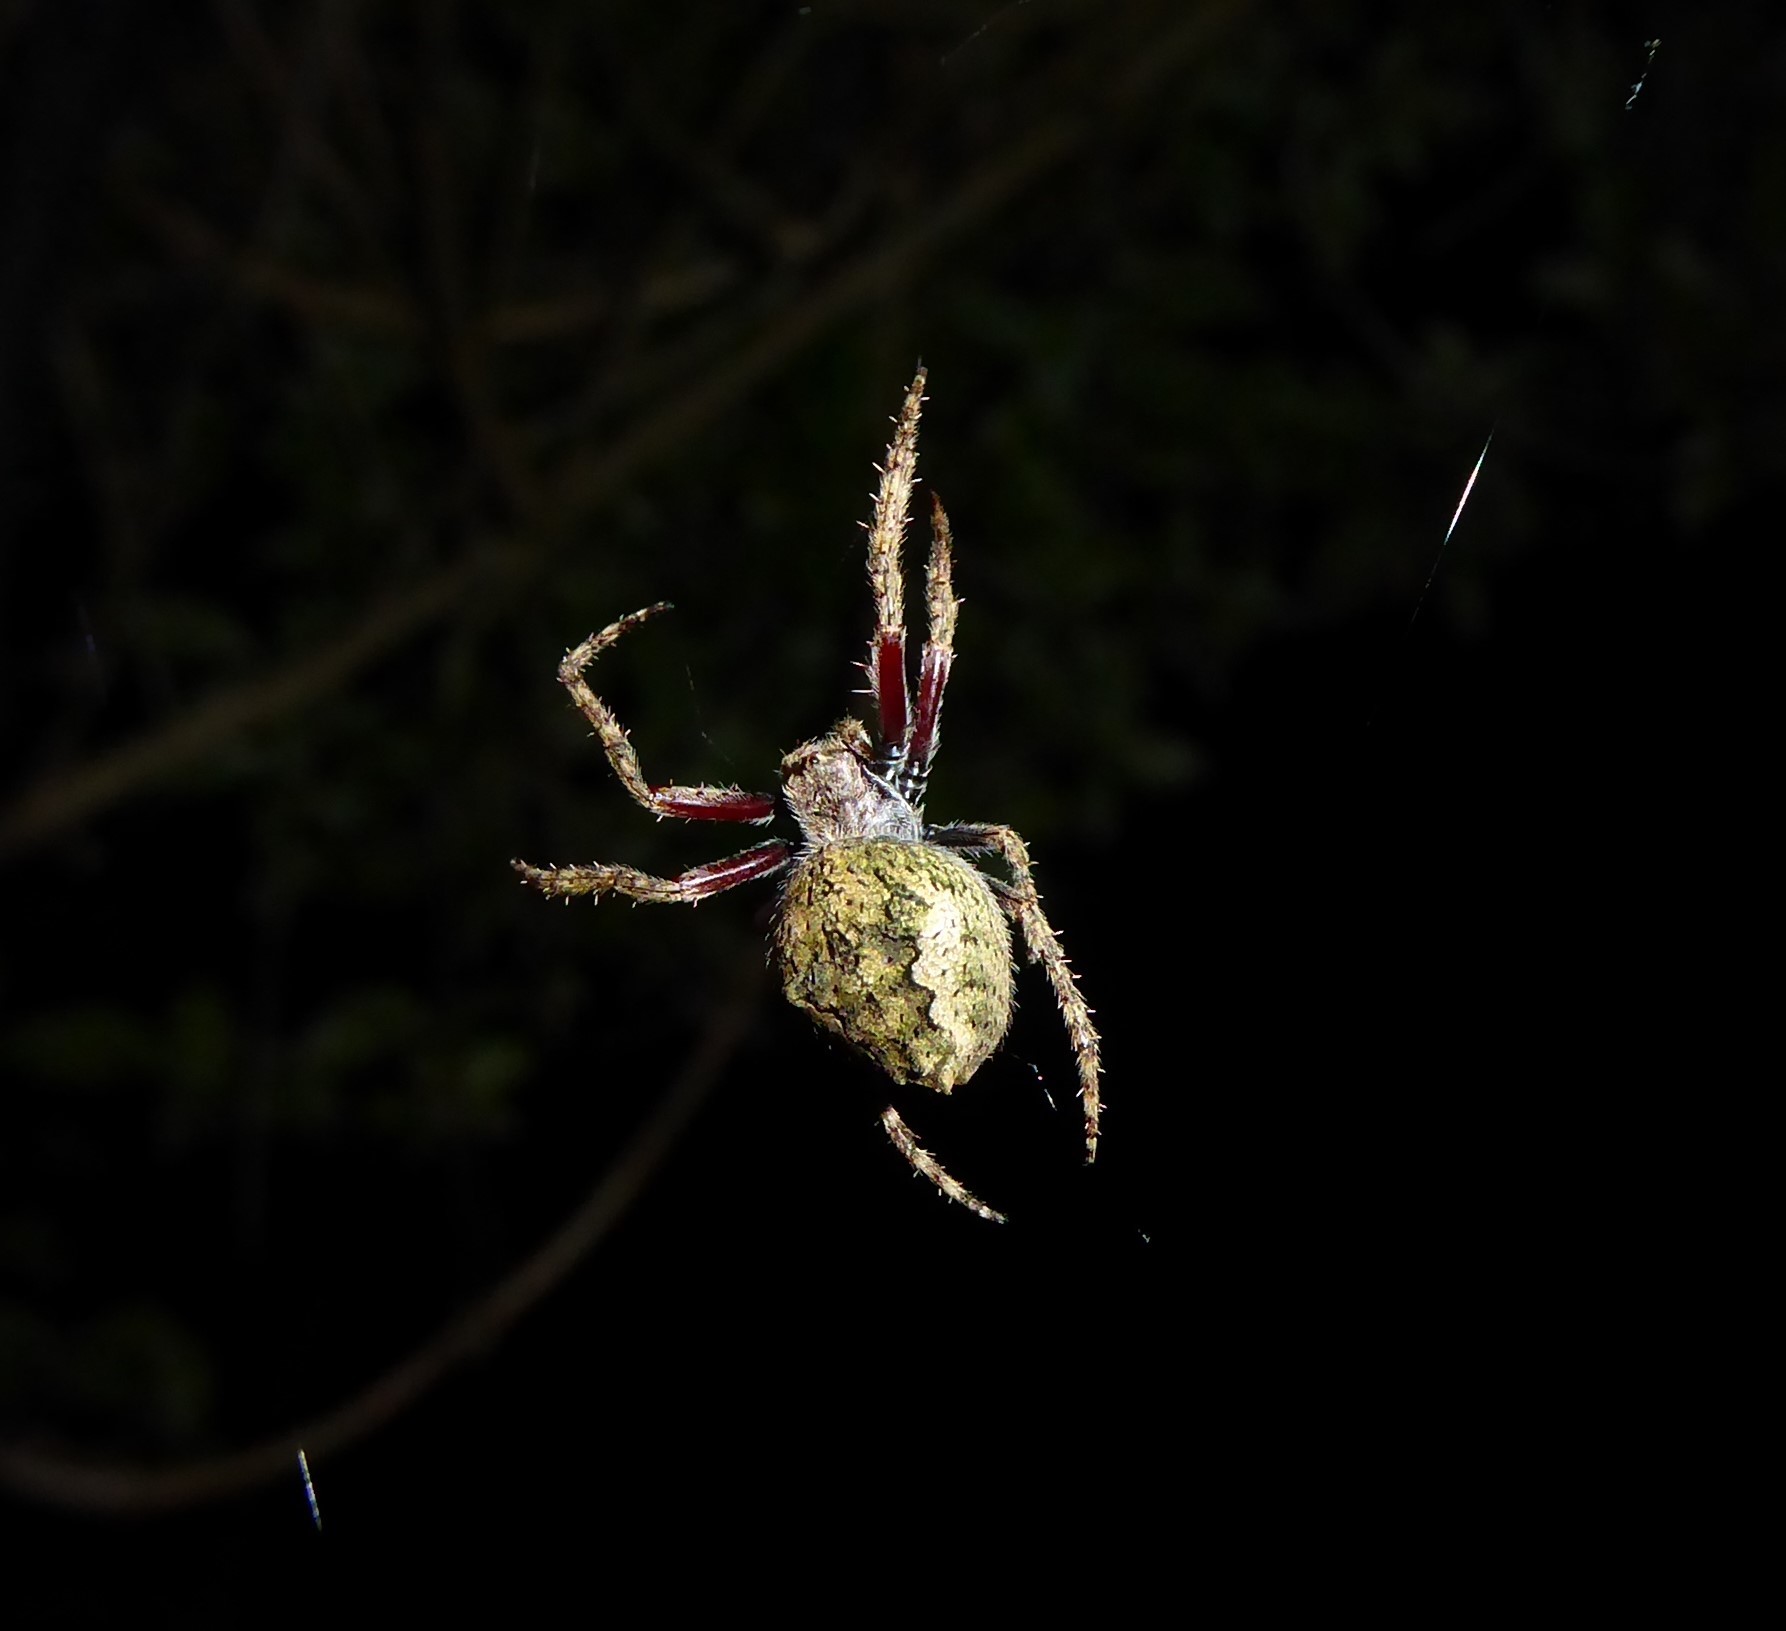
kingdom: Animalia
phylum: Arthropoda
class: Arachnida
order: Araneae
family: Araneidae
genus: Eriophora
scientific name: Eriophora pustulosa
